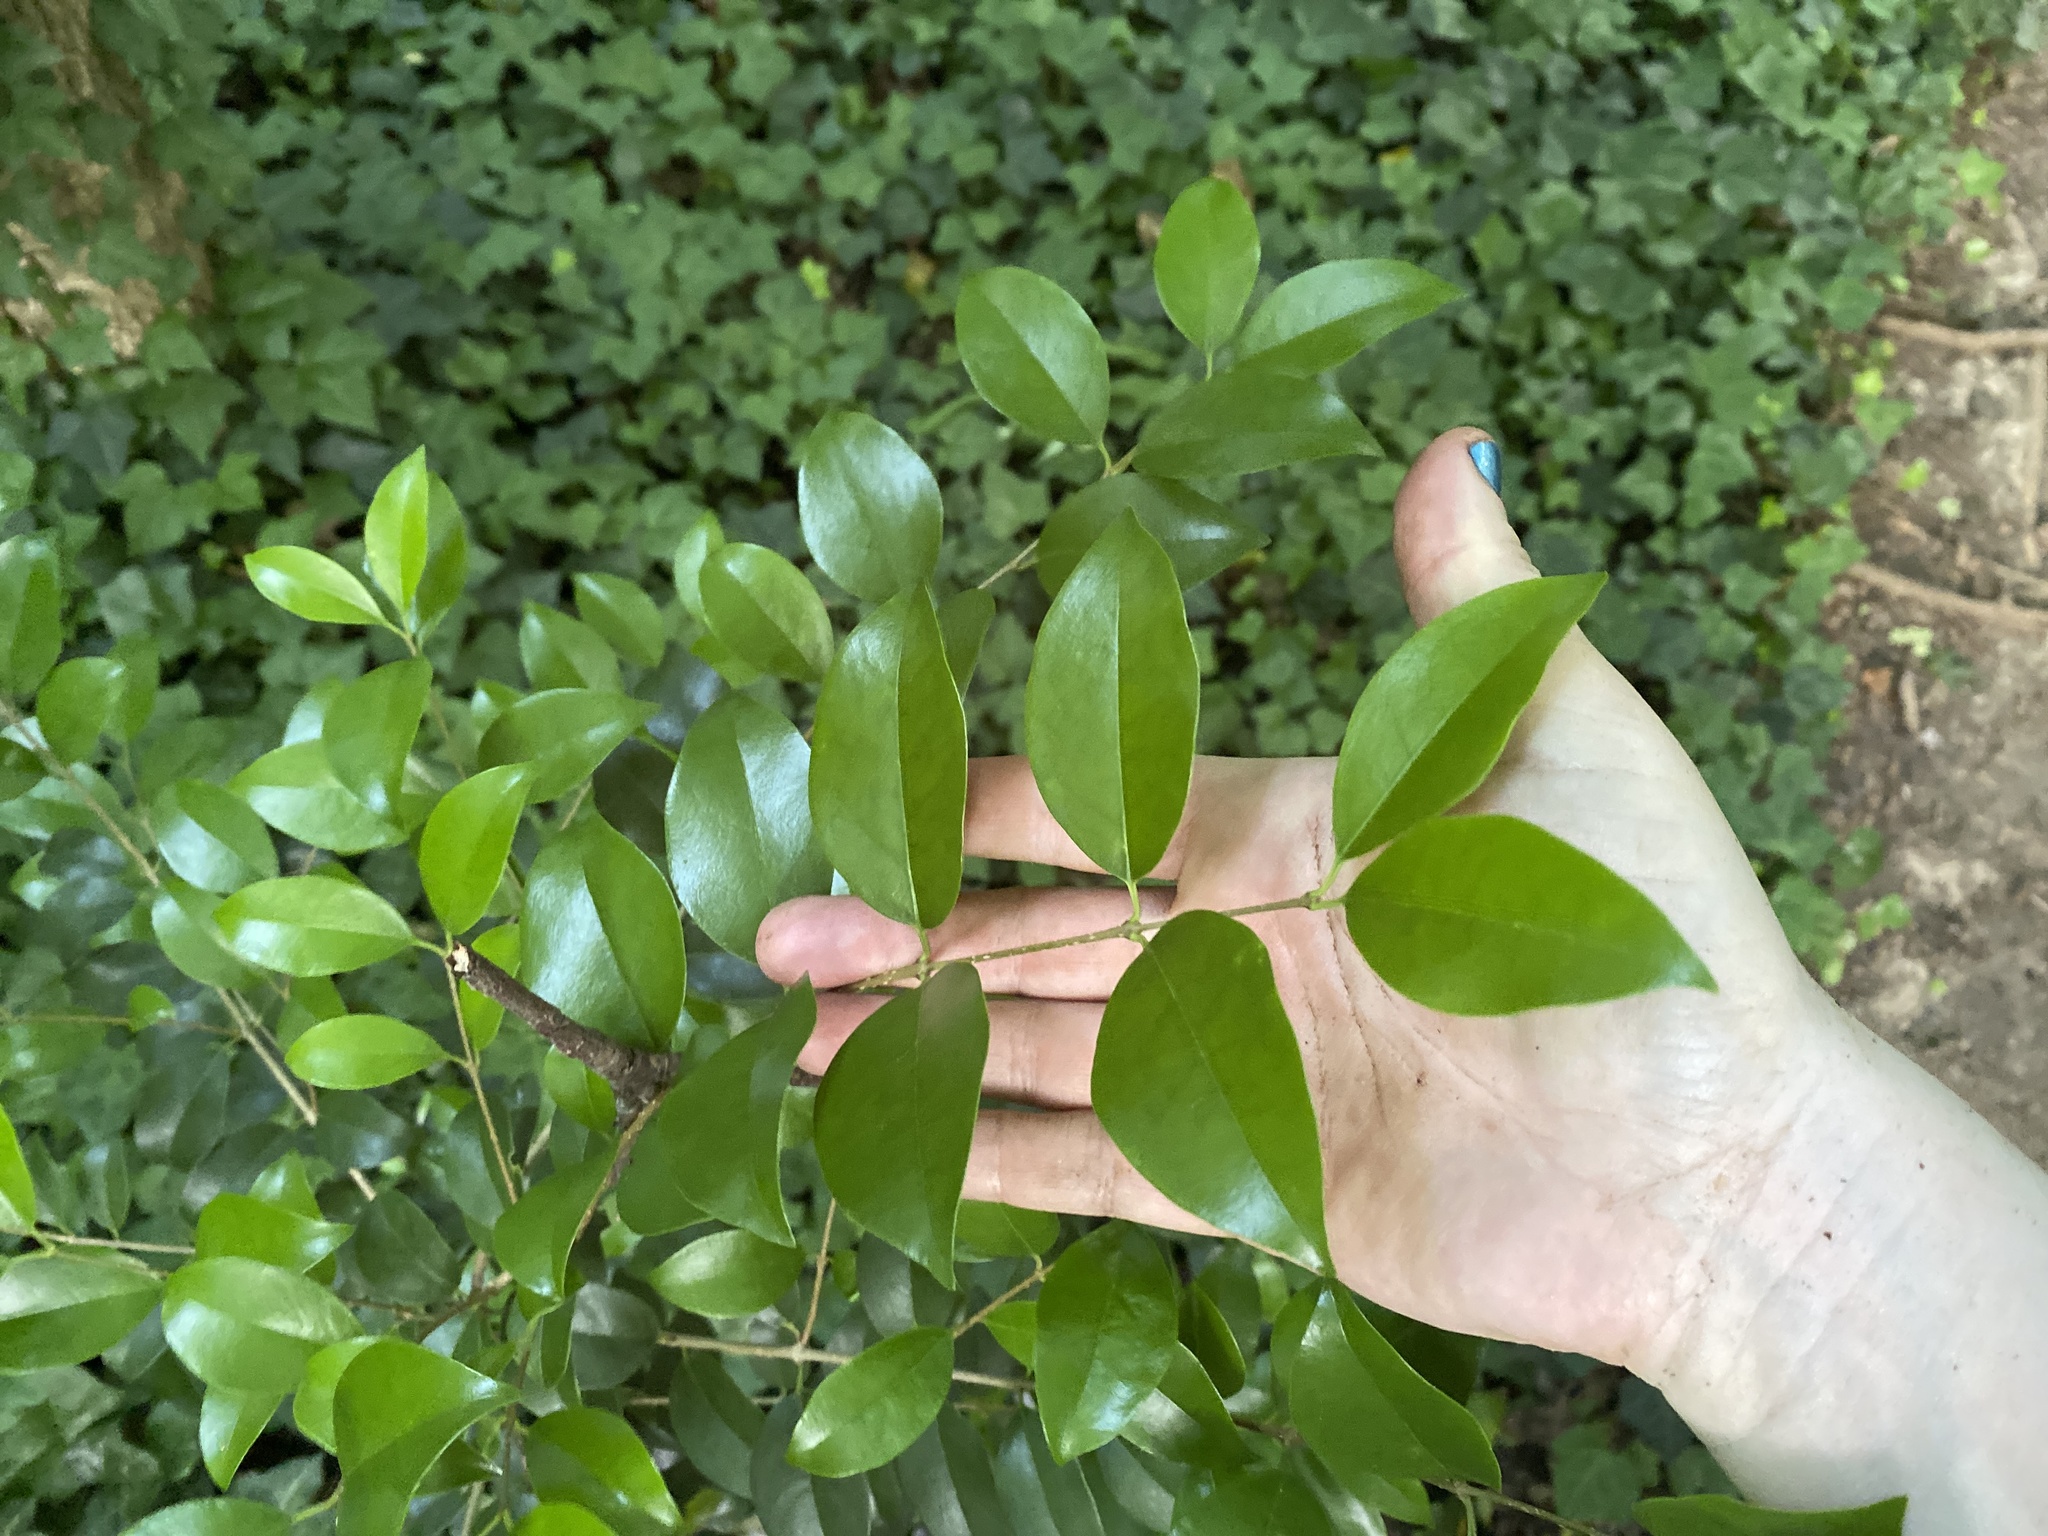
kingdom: Plantae
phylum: Tracheophyta
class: Magnoliopsida
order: Lamiales
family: Oleaceae
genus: Ligustrum
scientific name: Ligustrum lucidum
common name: Glossy privet
